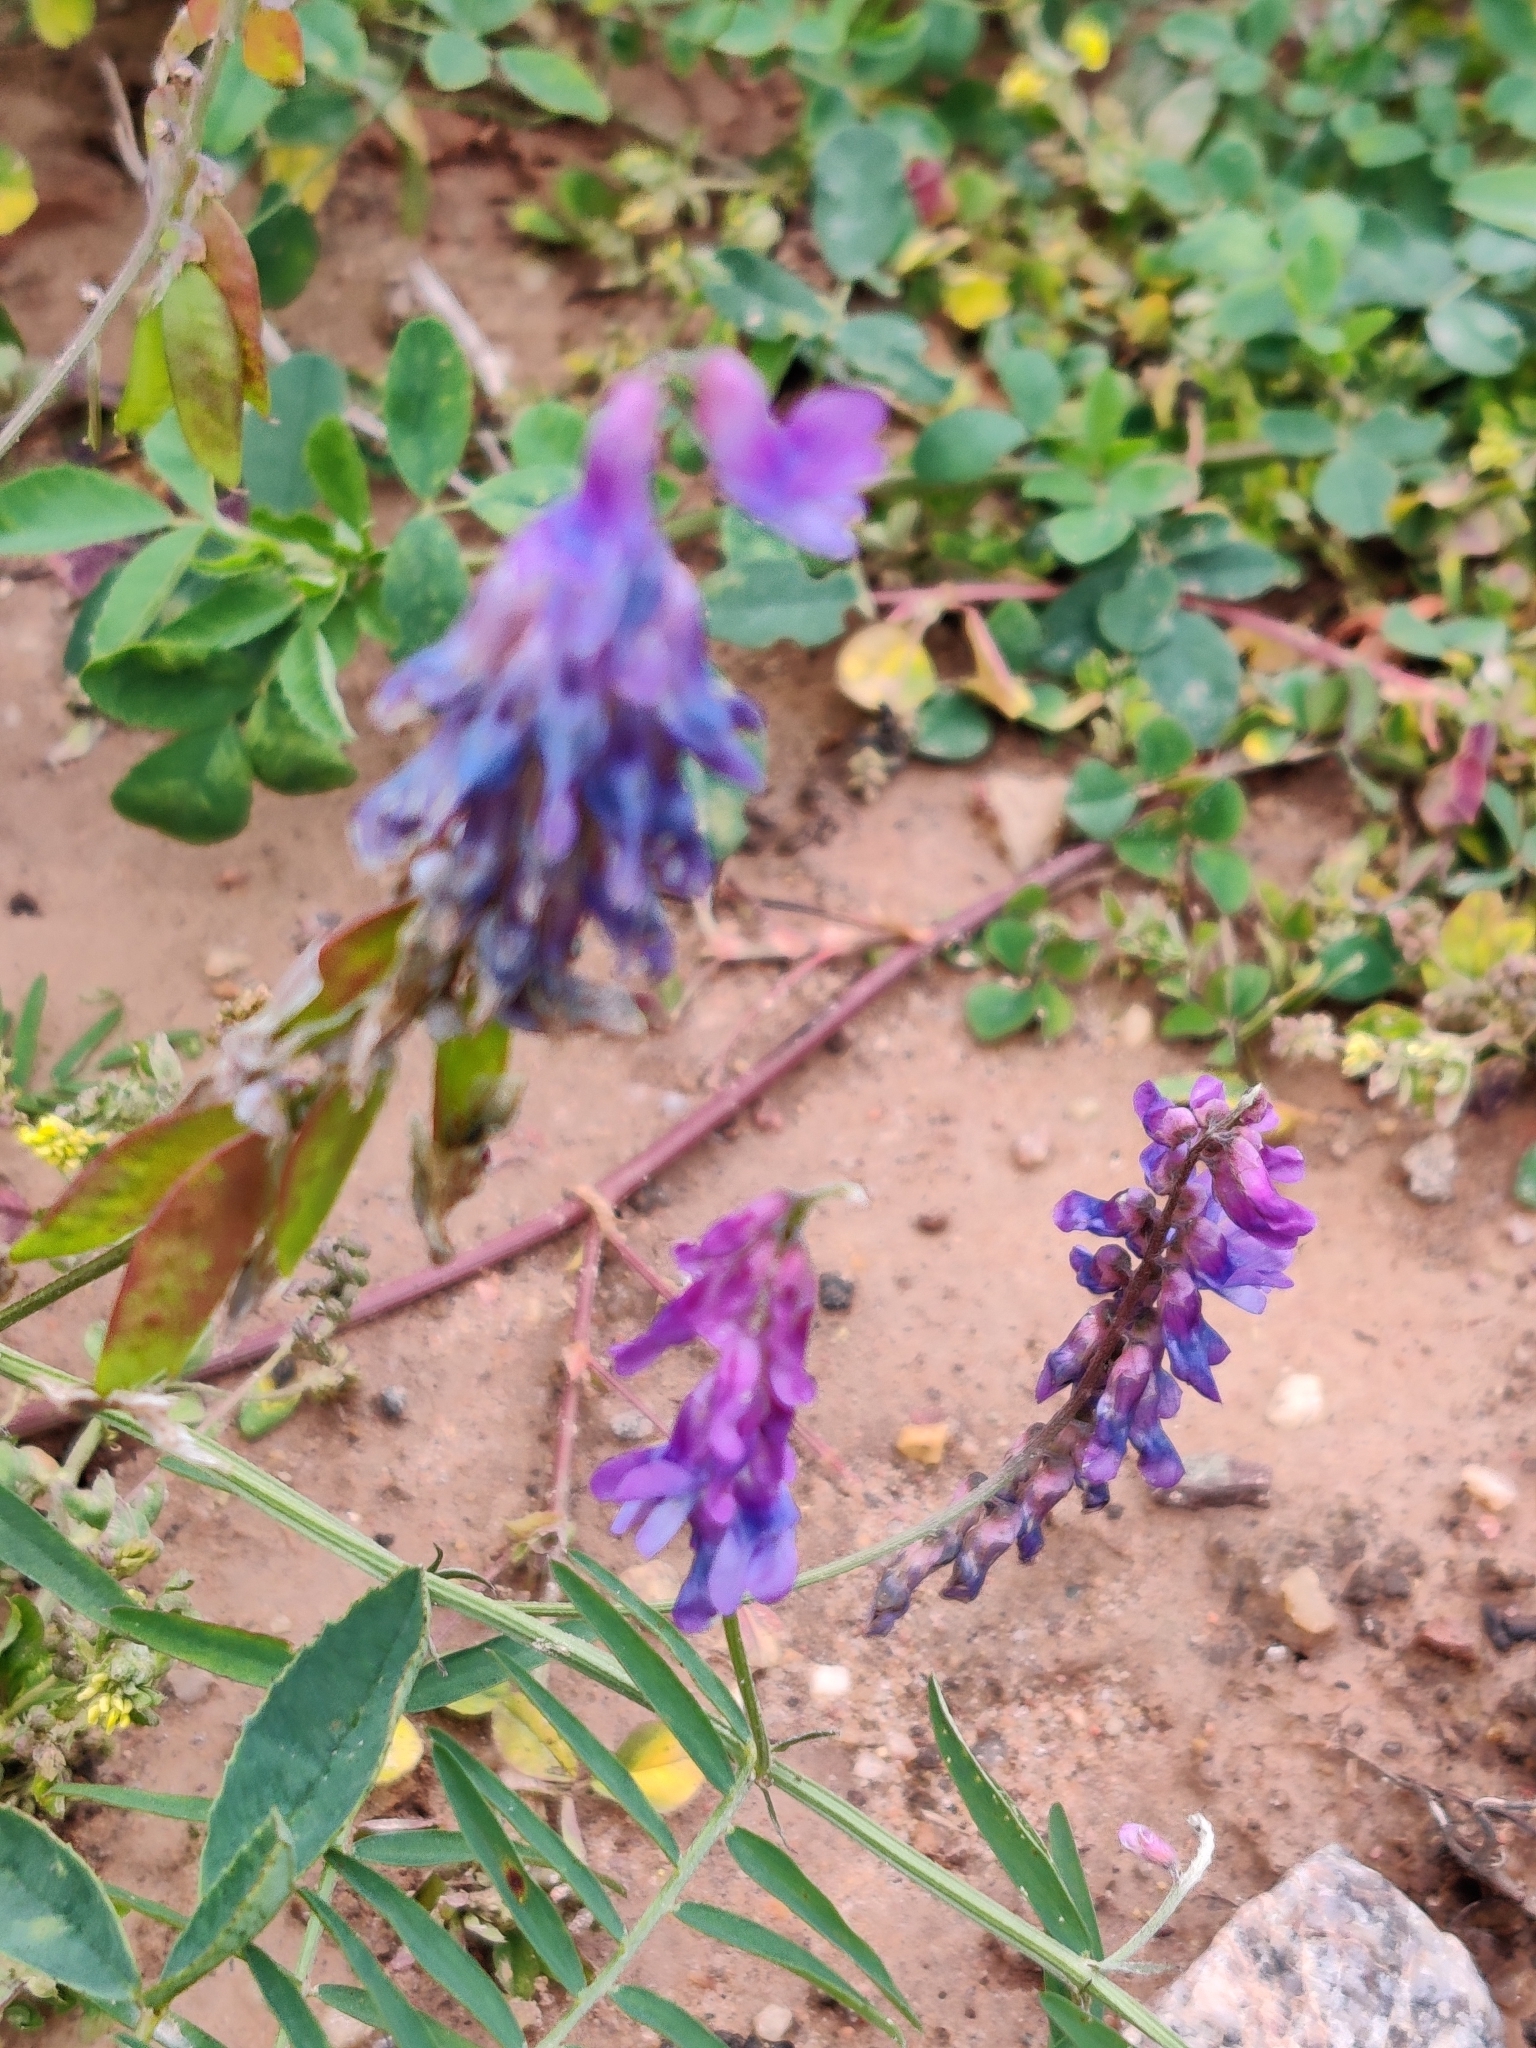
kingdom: Plantae
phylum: Tracheophyta
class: Magnoliopsida
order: Fabales
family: Fabaceae
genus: Vicia
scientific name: Vicia cracca
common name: Bird vetch
